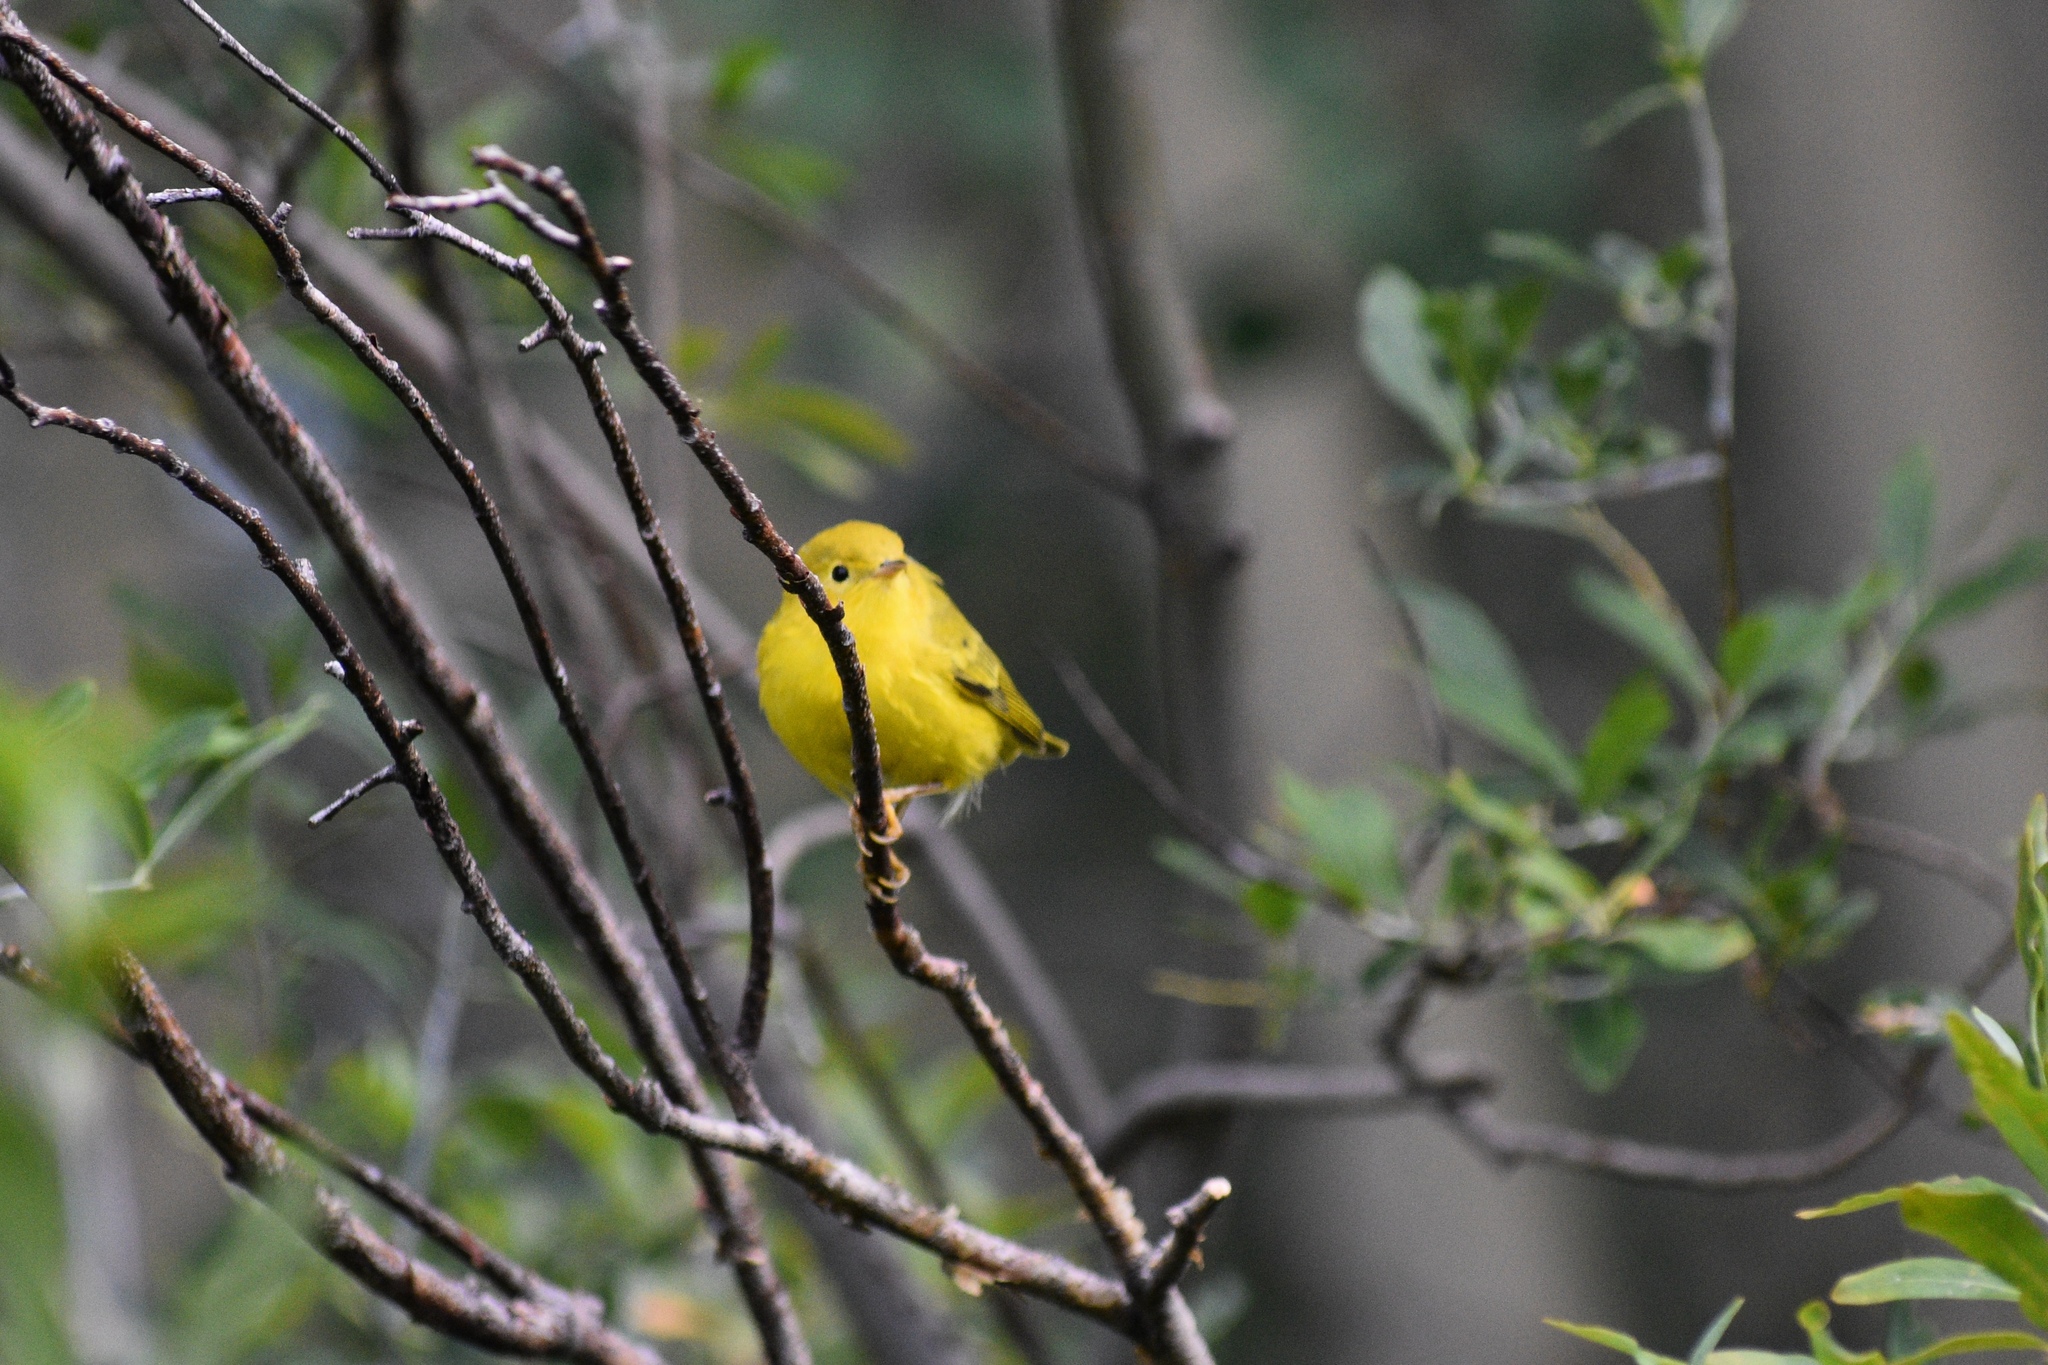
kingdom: Animalia
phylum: Chordata
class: Aves
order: Passeriformes
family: Parulidae
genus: Setophaga
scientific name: Setophaga petechia
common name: Yellow warbler
